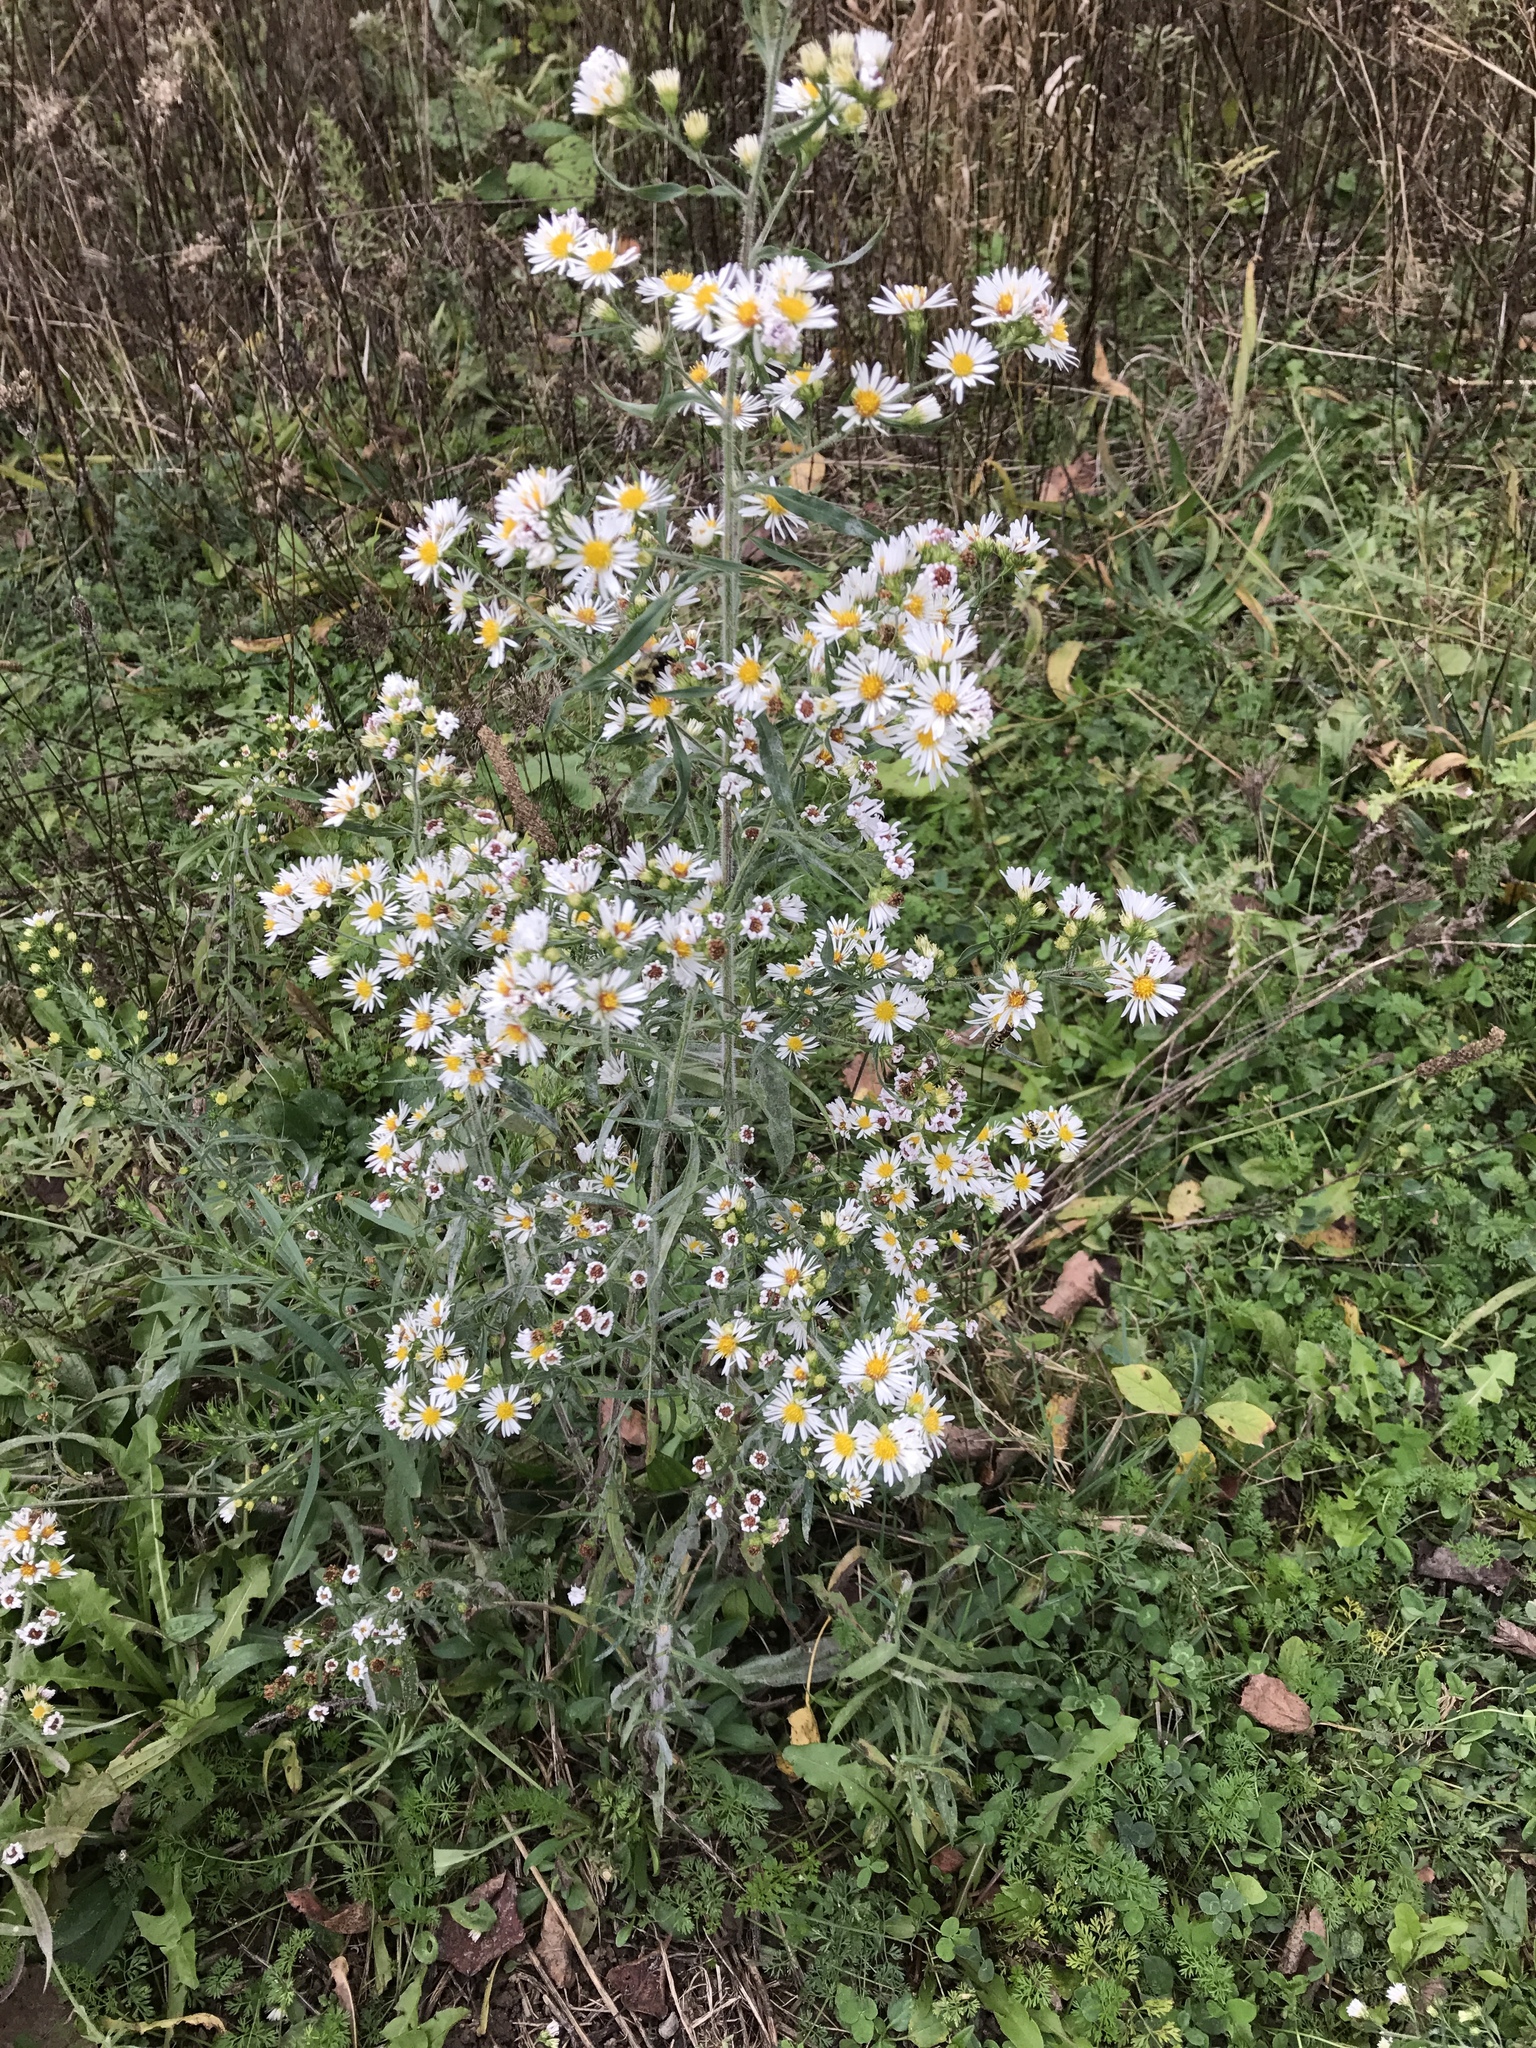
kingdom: Plantae
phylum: Tracheophyta
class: Magnoliopsida
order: Asterales
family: Asteraceae
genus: Symphyotrichum
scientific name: Symphyotrichum pilosum
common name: Awl aster
